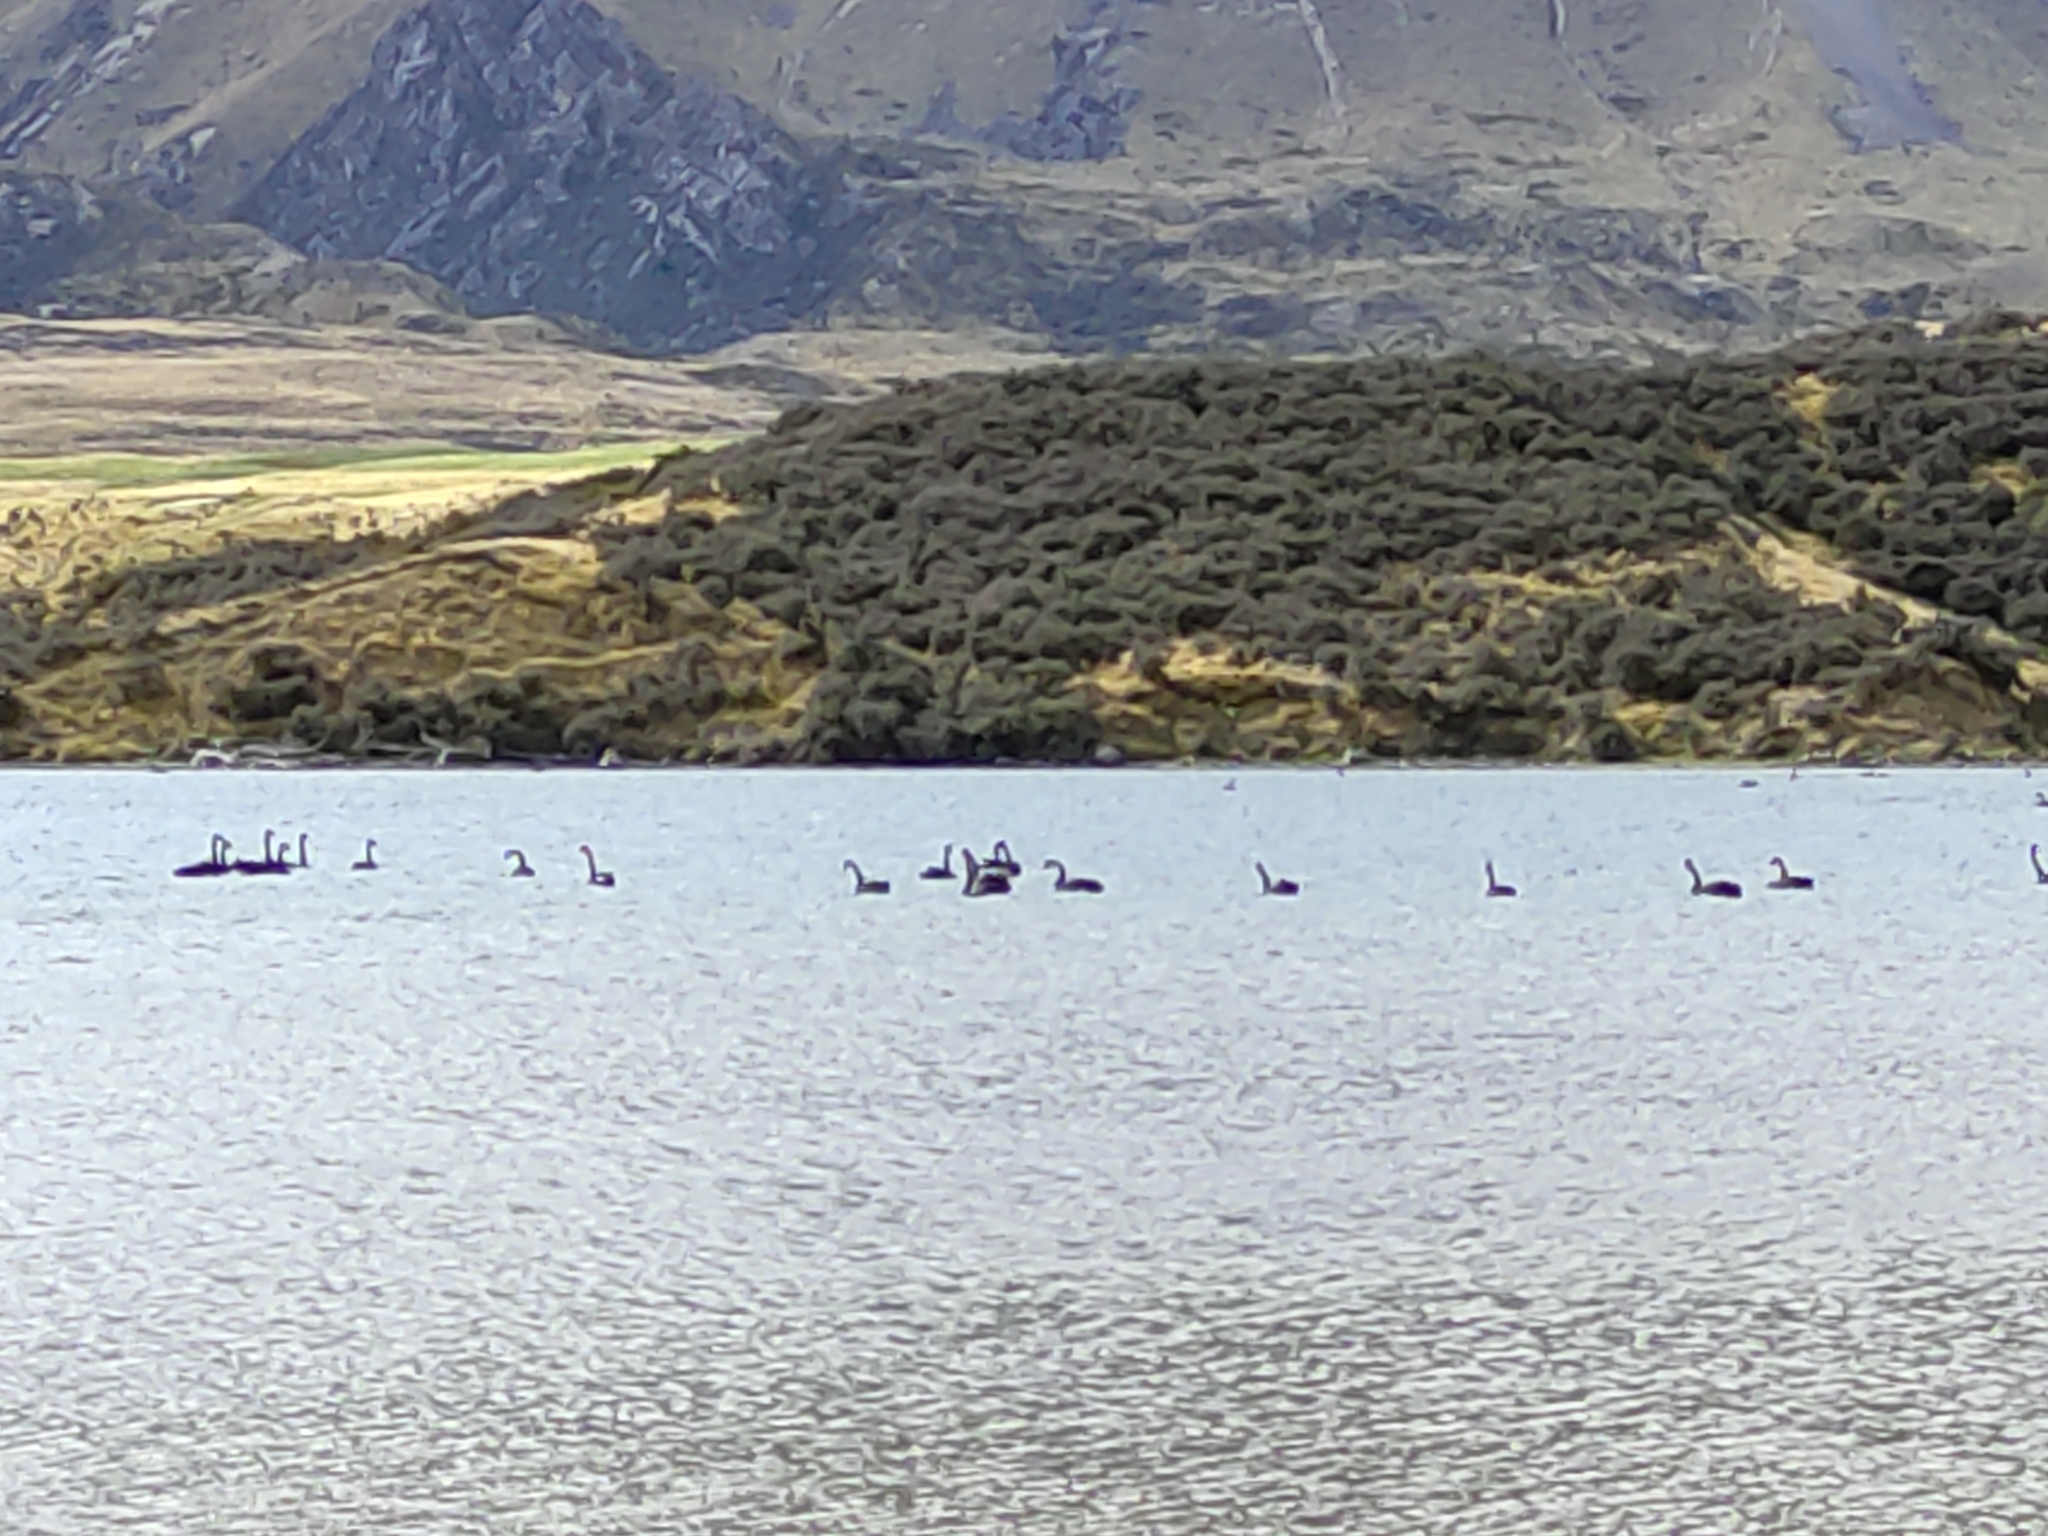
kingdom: Animalia
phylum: Chordata
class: Aves
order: Anseriformes
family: Anatidae
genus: Cygnus
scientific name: Cygnus atratus
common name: Black swan
